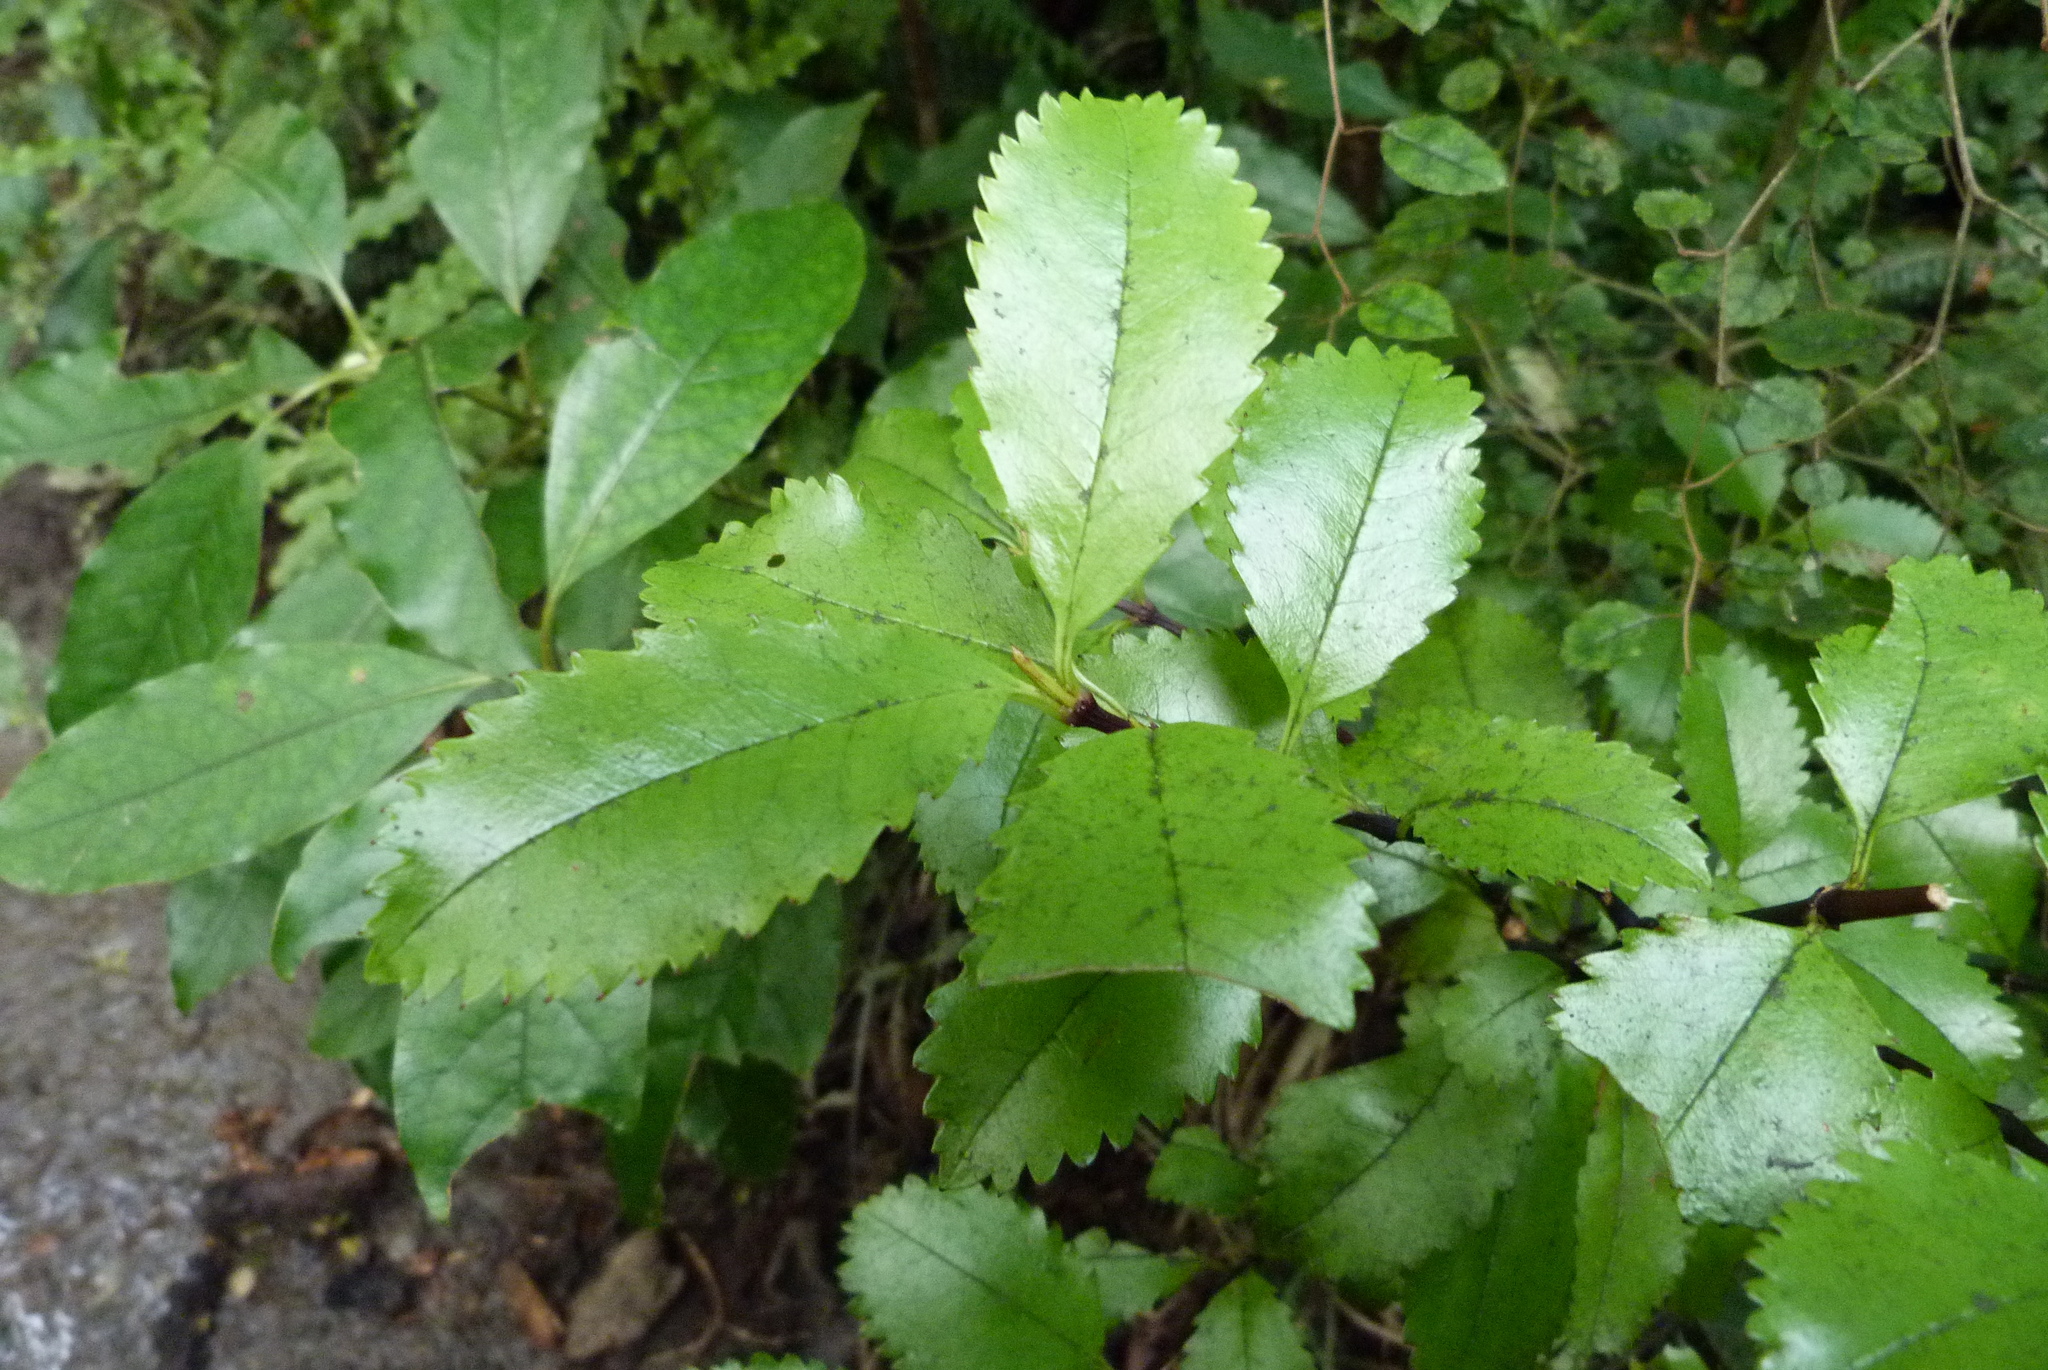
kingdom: Plantae
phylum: Tracheophyta
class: Magnoliopsida
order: Chloranthales
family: Chloranthaceae
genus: Ascarina
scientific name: Ascarina lucida
